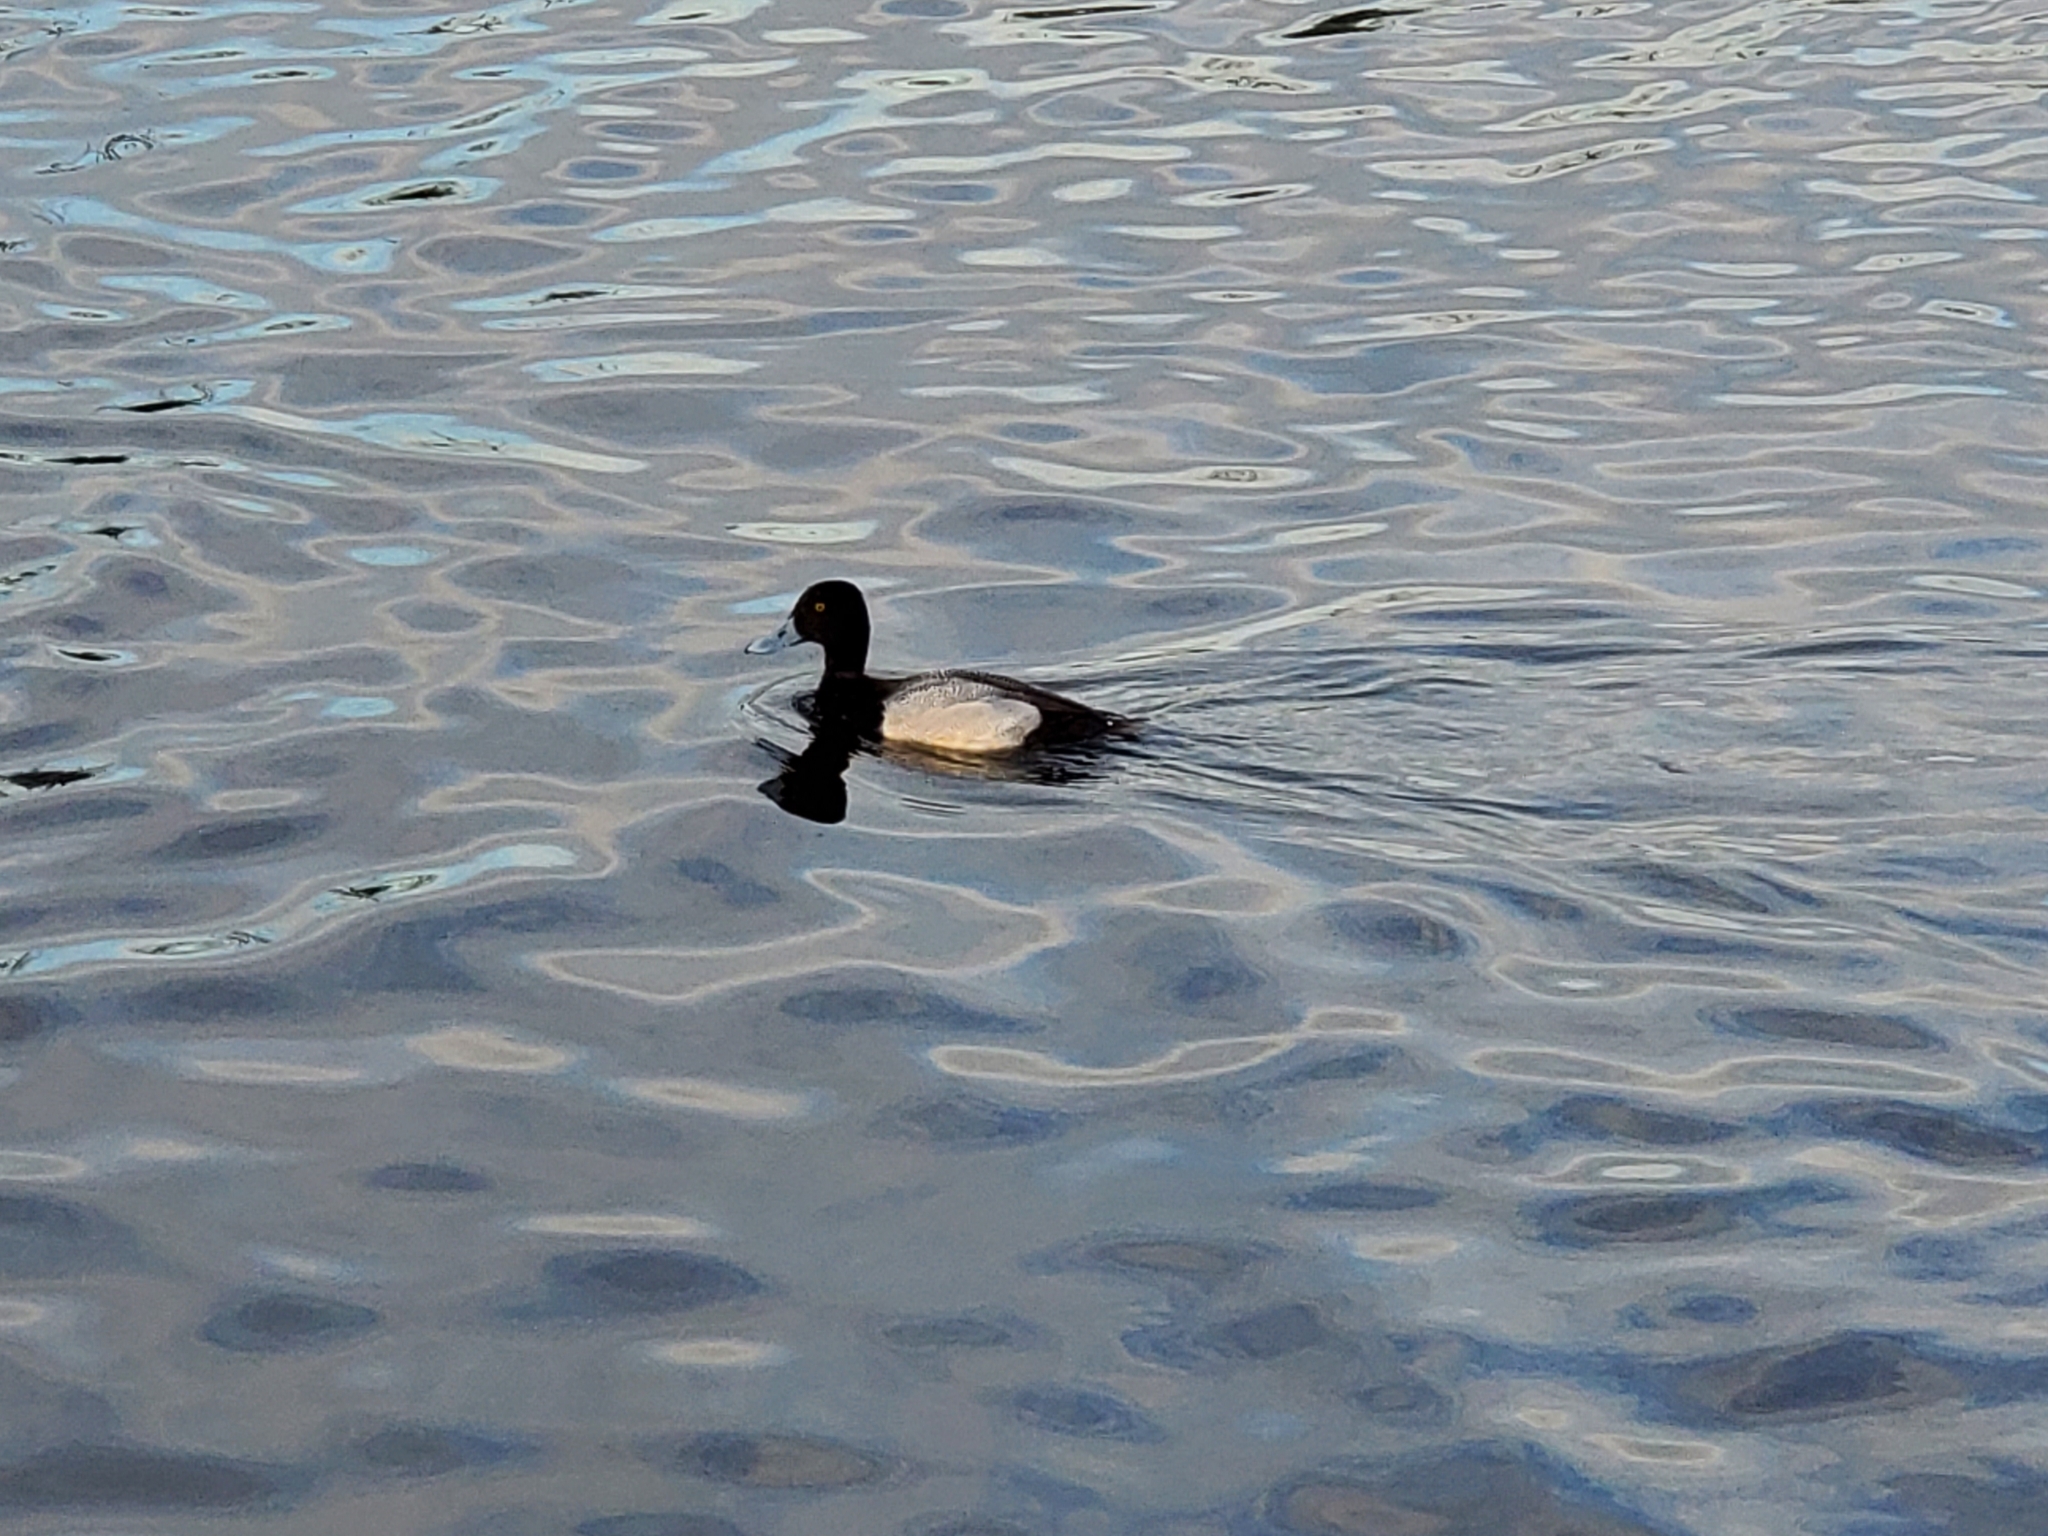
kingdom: Animalia
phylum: Chordata
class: Aves
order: Anseriformes
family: Anatidae
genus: Aythya
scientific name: Aythya affinis
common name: Lesser scaup
